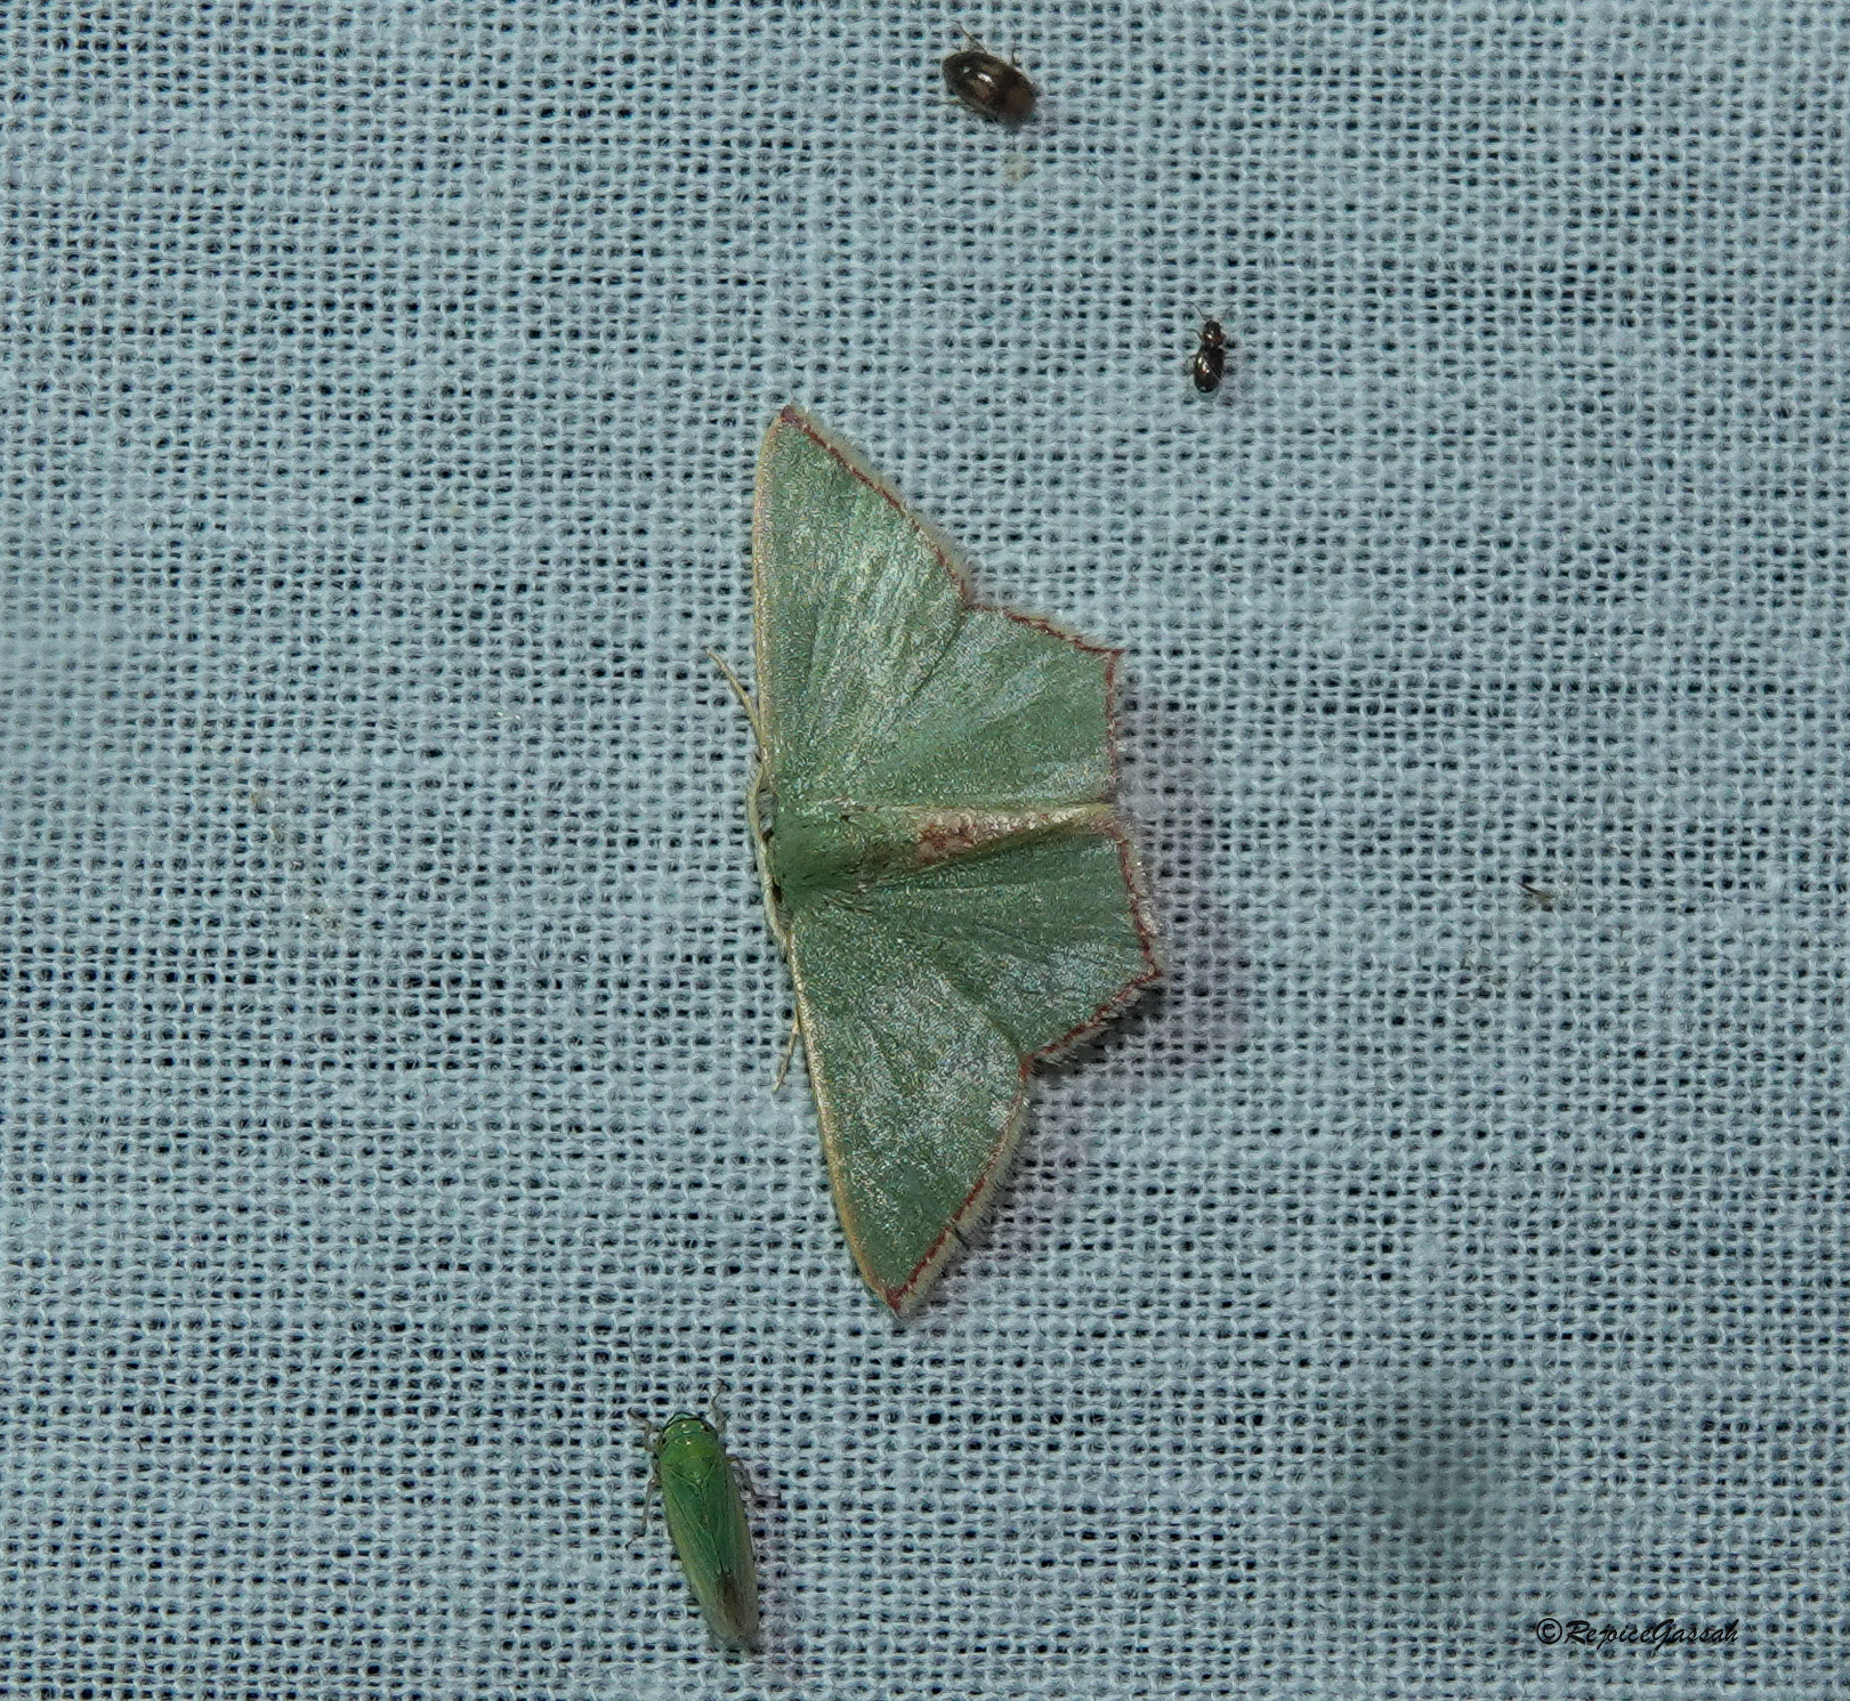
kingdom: Animalia
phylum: Arthropoda
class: Insecta
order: Lepidoptera
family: Geometridae
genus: Pamphlebia
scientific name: Pamphlebia rubrolimbraria
